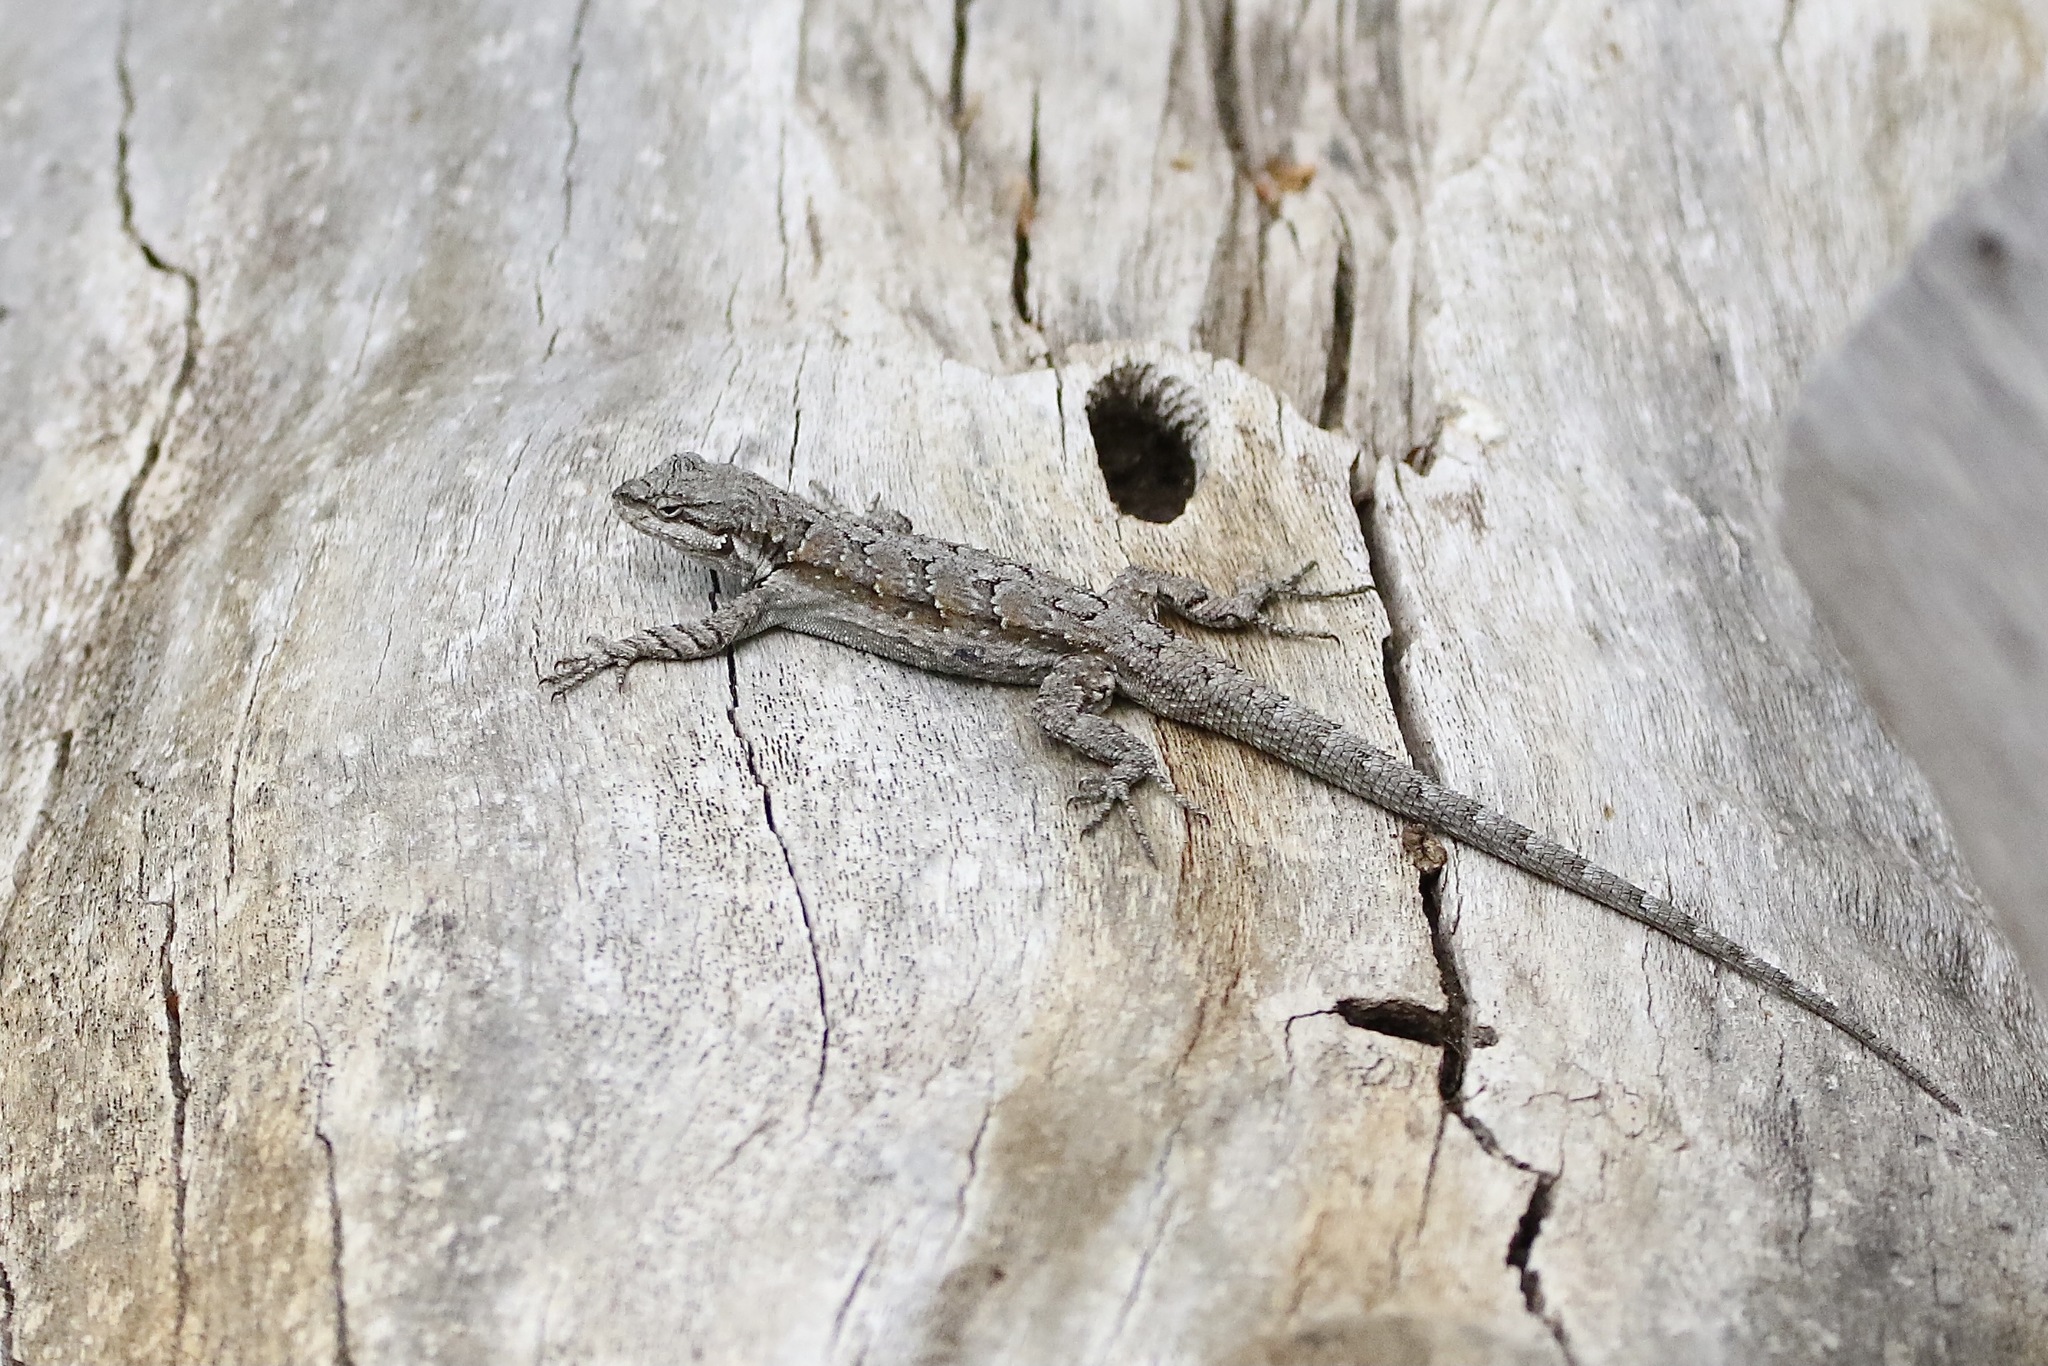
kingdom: Animalia
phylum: Chordata
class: Squamata
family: Phrynosomatidae
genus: Urosaurus
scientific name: Urosaurus ornatus
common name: Ornate tree lizard
